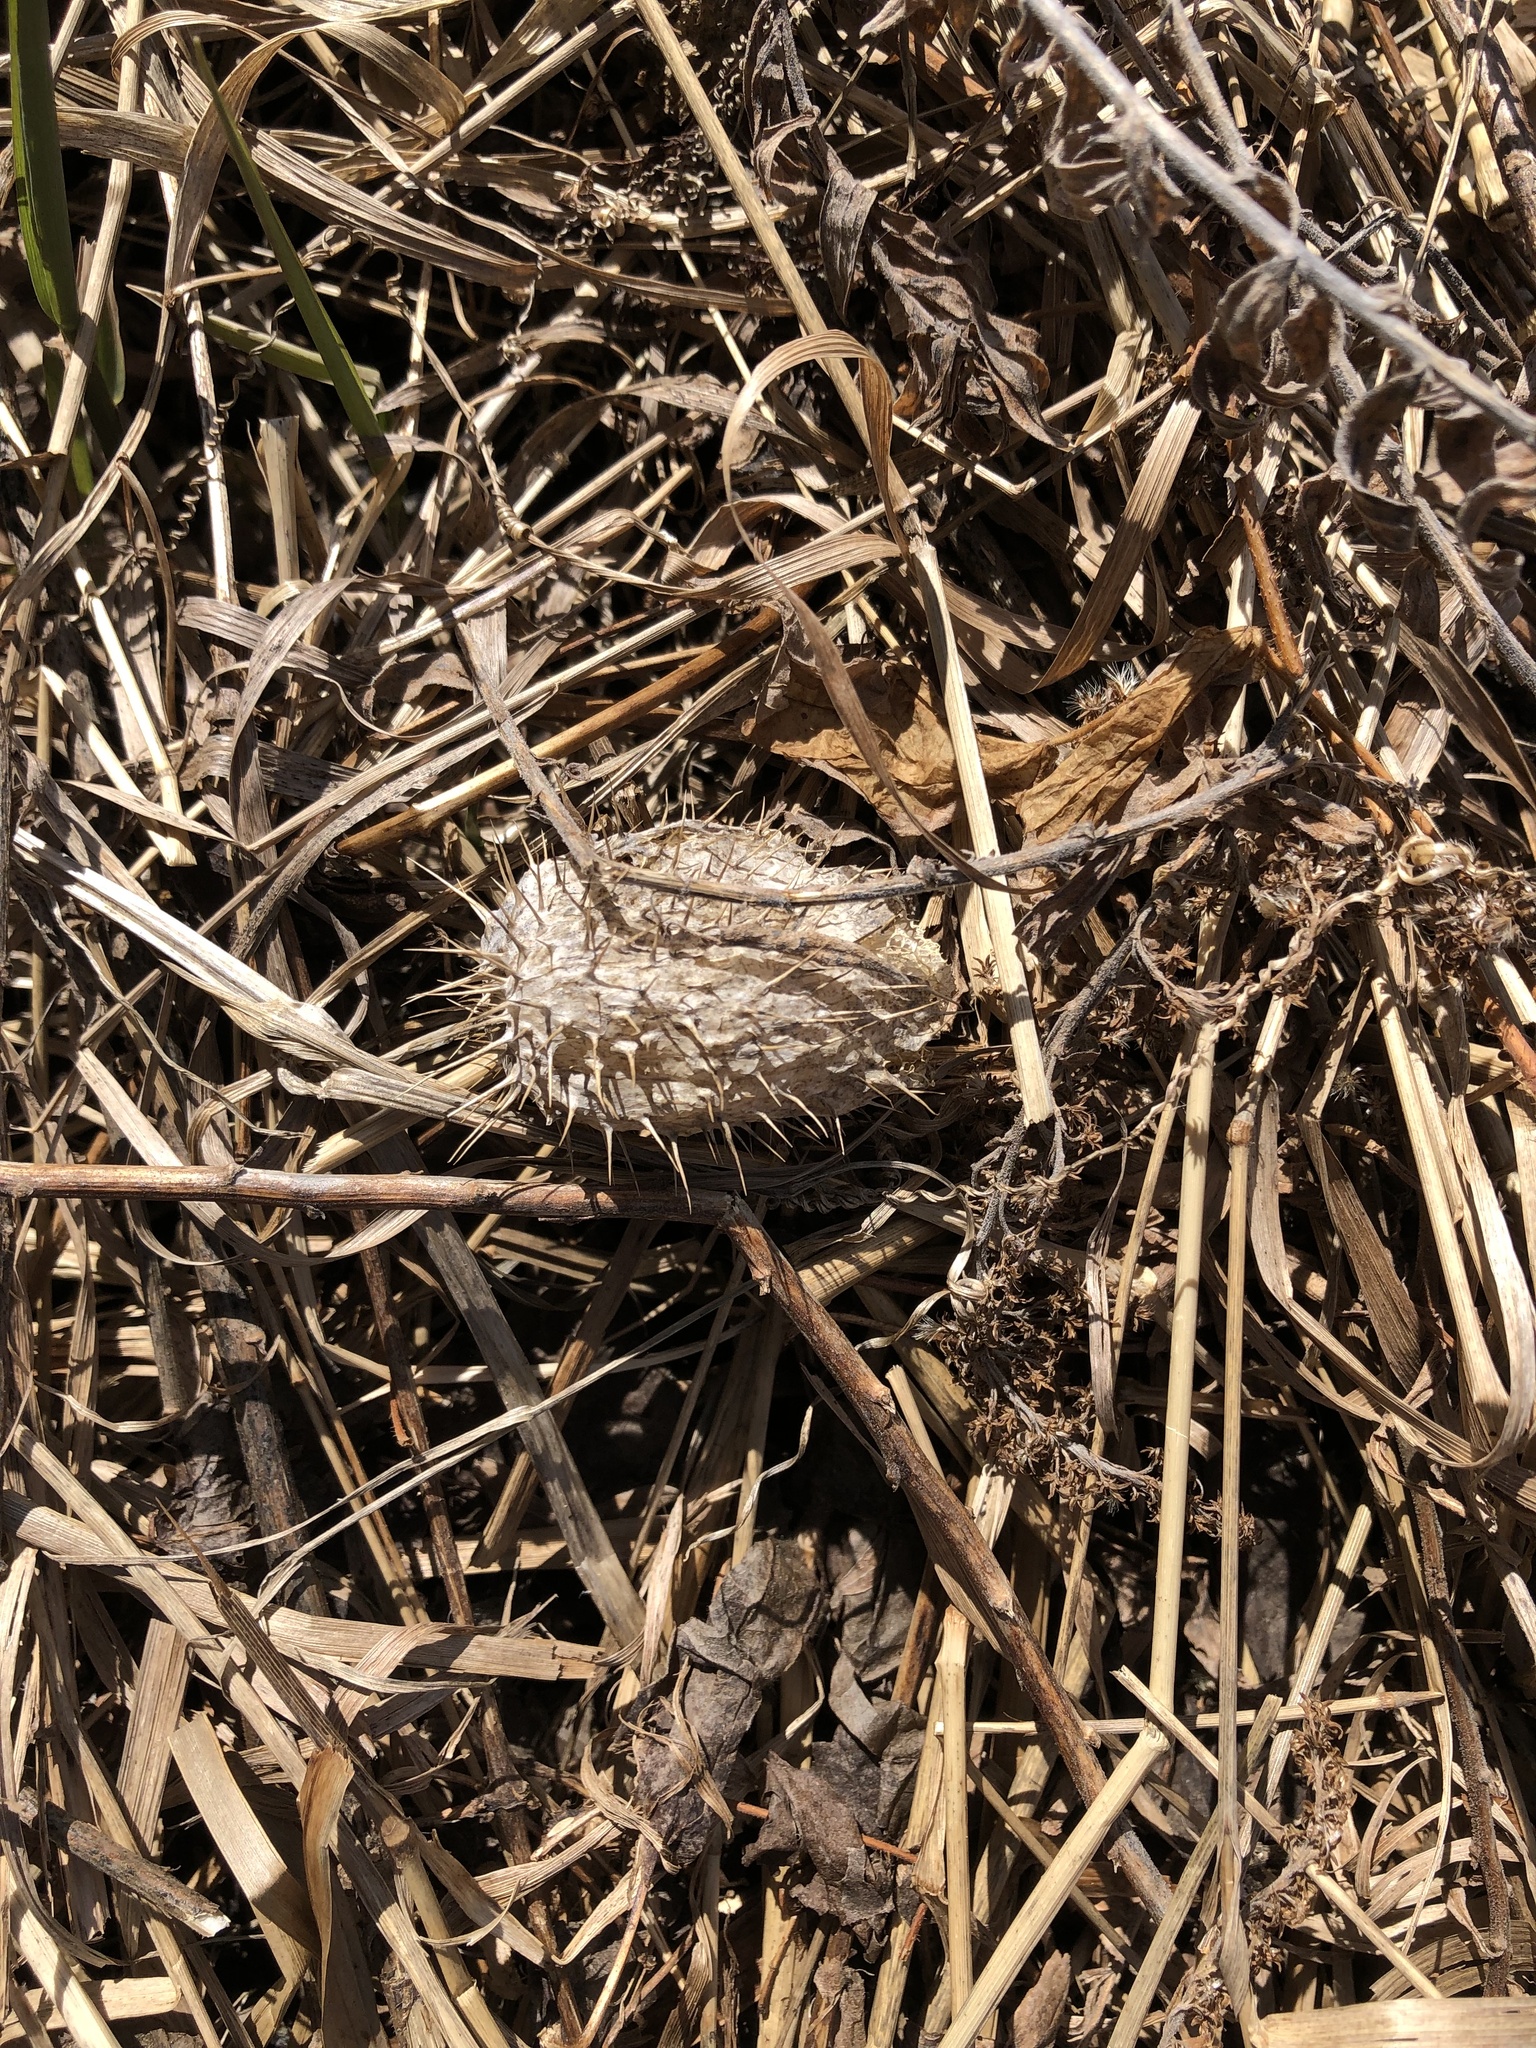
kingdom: Plantae
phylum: Tracheophyta
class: Magnoliopsida
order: Cucurbitales
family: Cucurbitaceae
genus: Echinocystis
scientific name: Echinocystis lobata
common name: Wild cucumber
